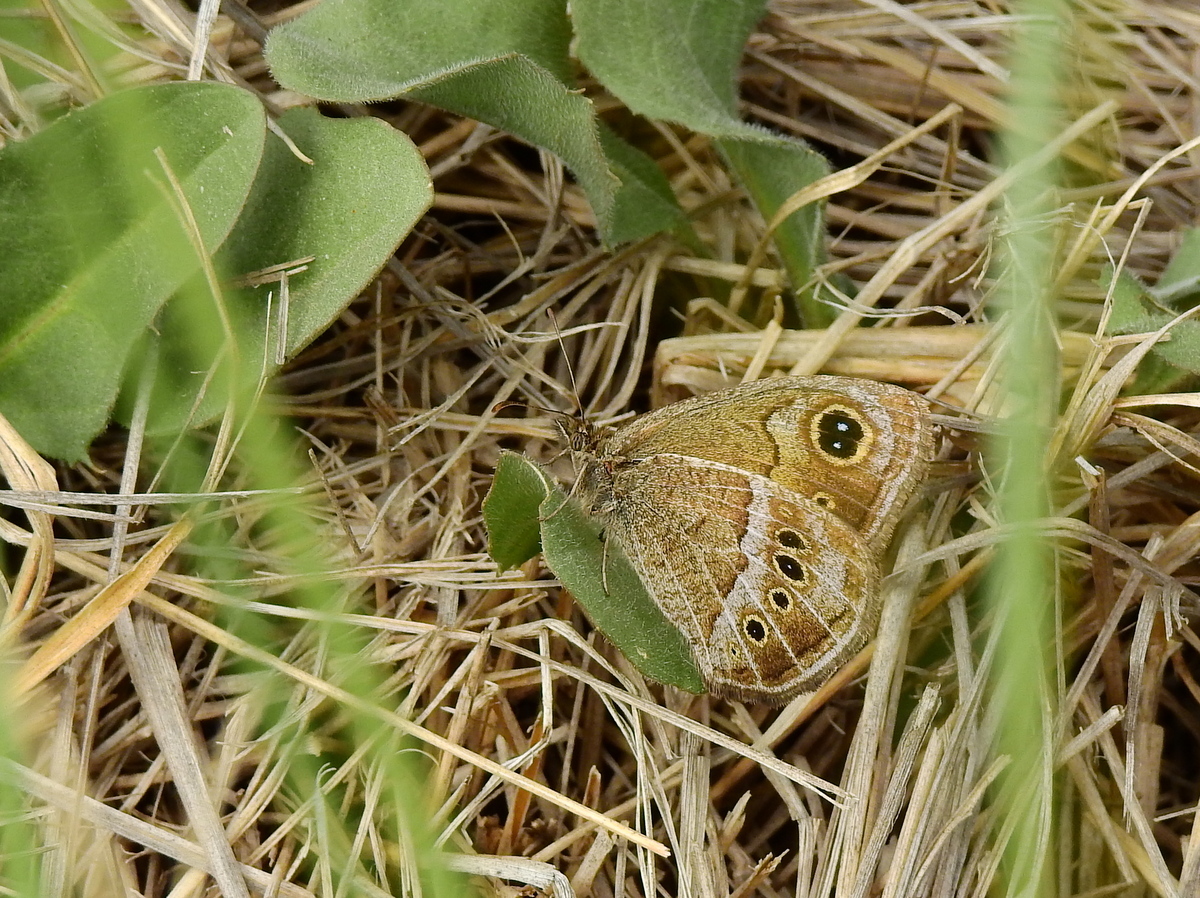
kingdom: Animalia
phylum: Arthropoda
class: Insecta
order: Lepidoptera
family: Nymphalidae
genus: Pampasatyrus
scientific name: Pampasatyrus gyrtone
